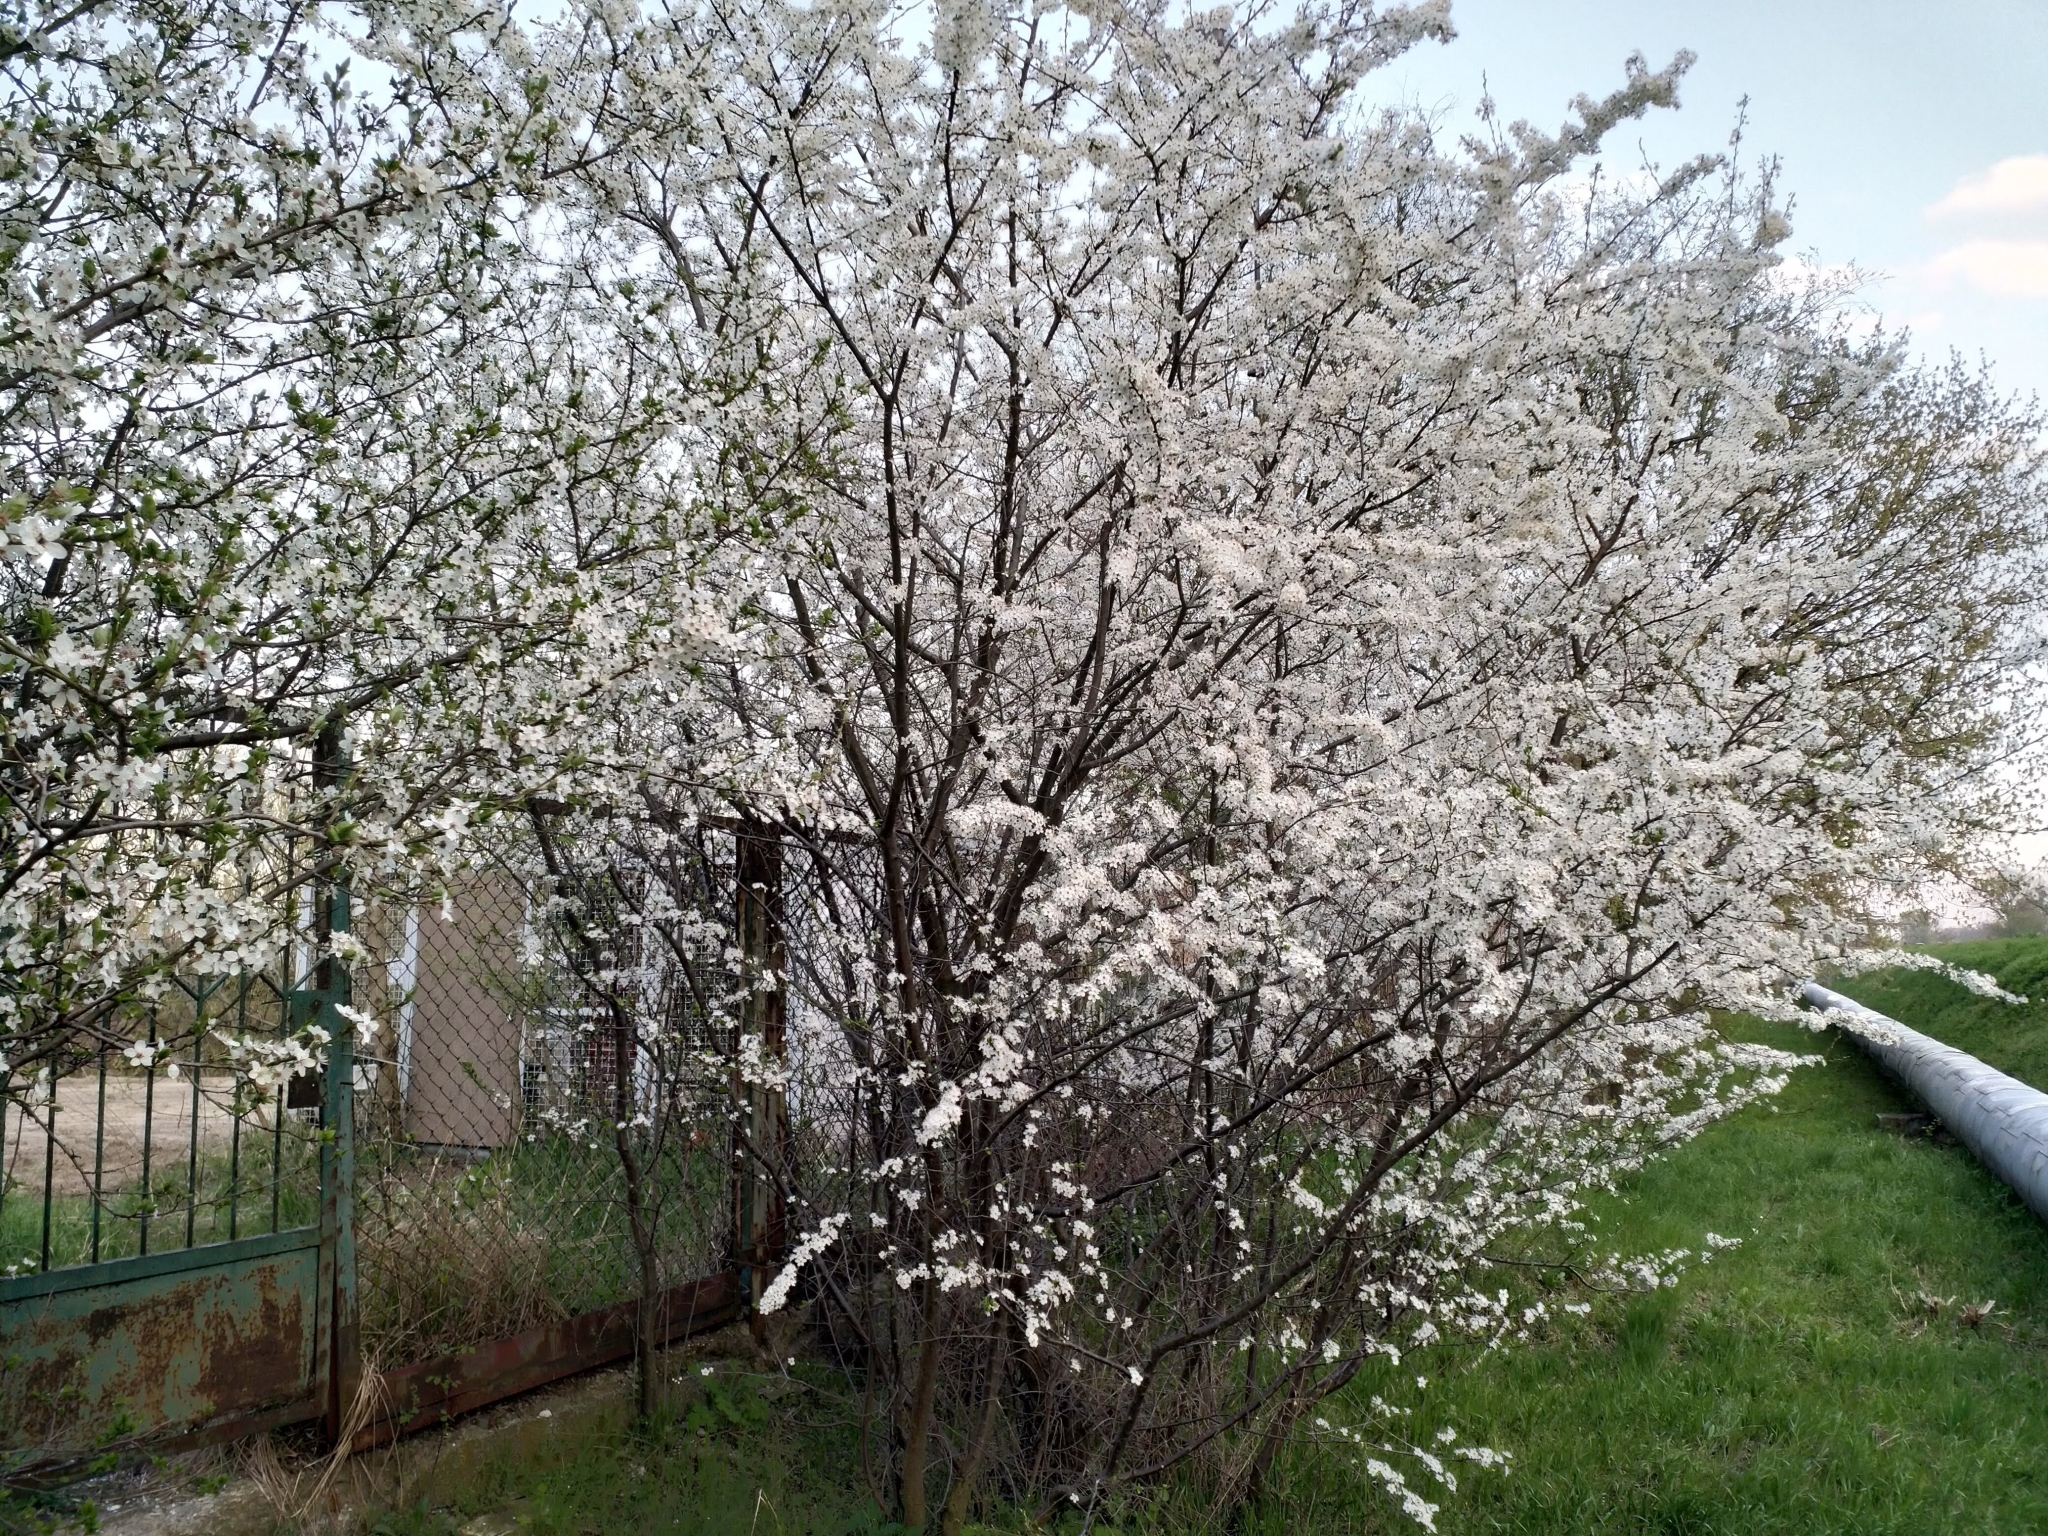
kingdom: Plantae
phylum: Tracheophyta
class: Magnoliopsida
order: Rosales
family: Rosaceae
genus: Prunus
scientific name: Prunus cerasifera
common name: Cherry plum
